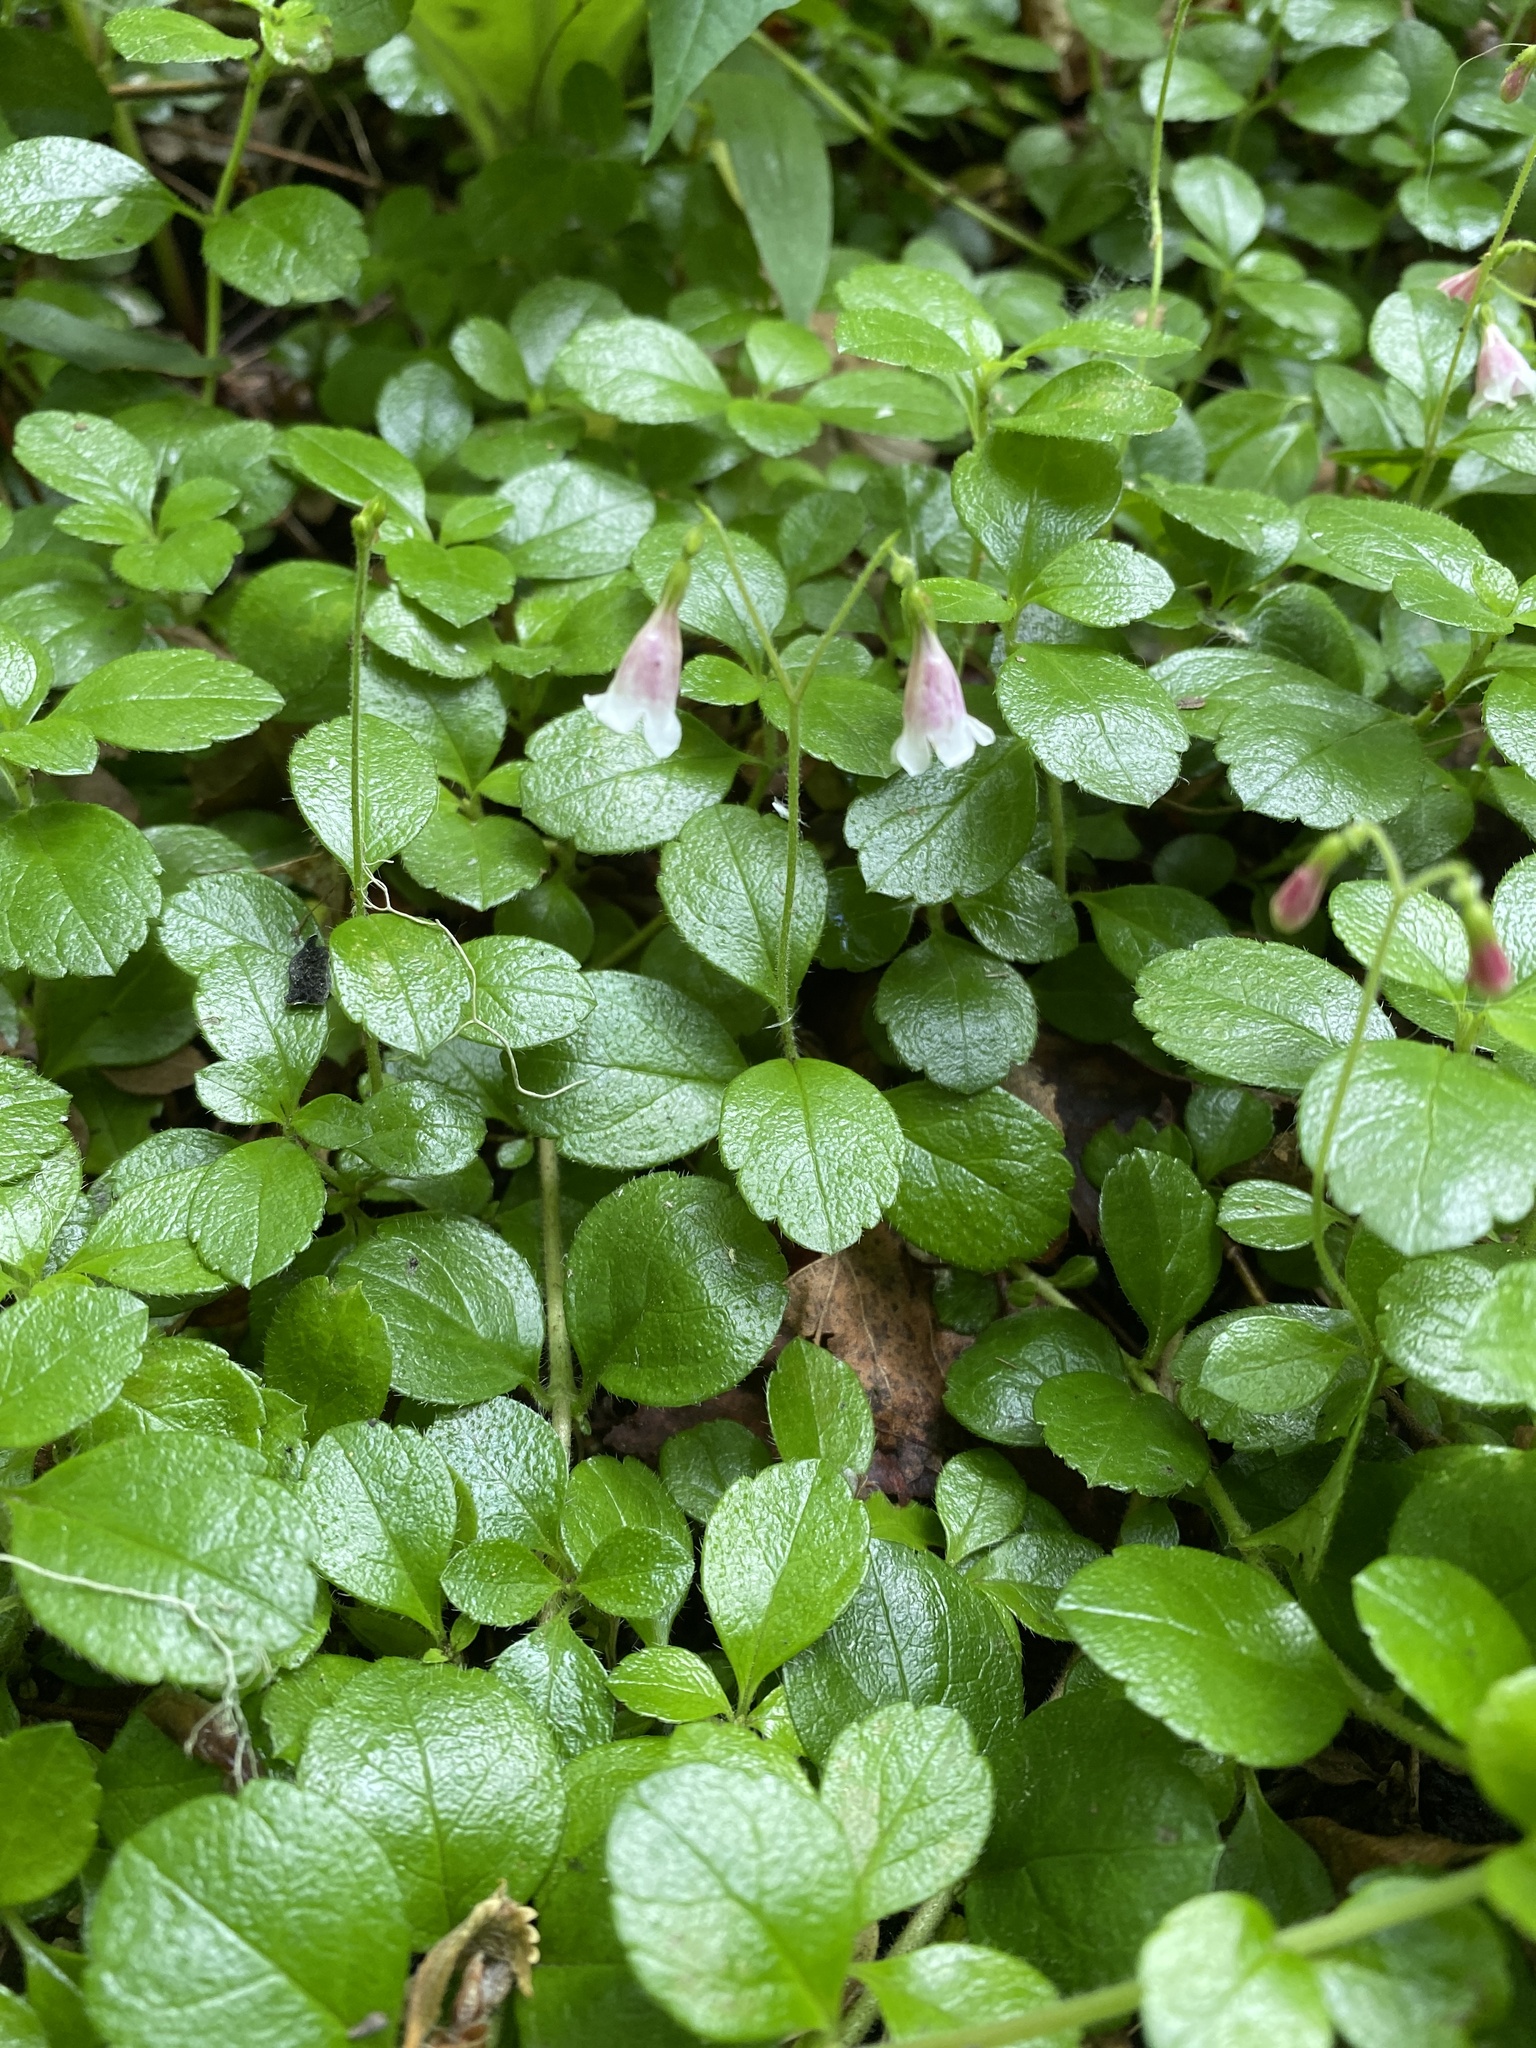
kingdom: Plantae
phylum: Tracheophyta
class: Magnoliopsida
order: Dipsacales
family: Caprifoliaceae
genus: Linnaea
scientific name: Linnaea borealis
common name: Twinflower
